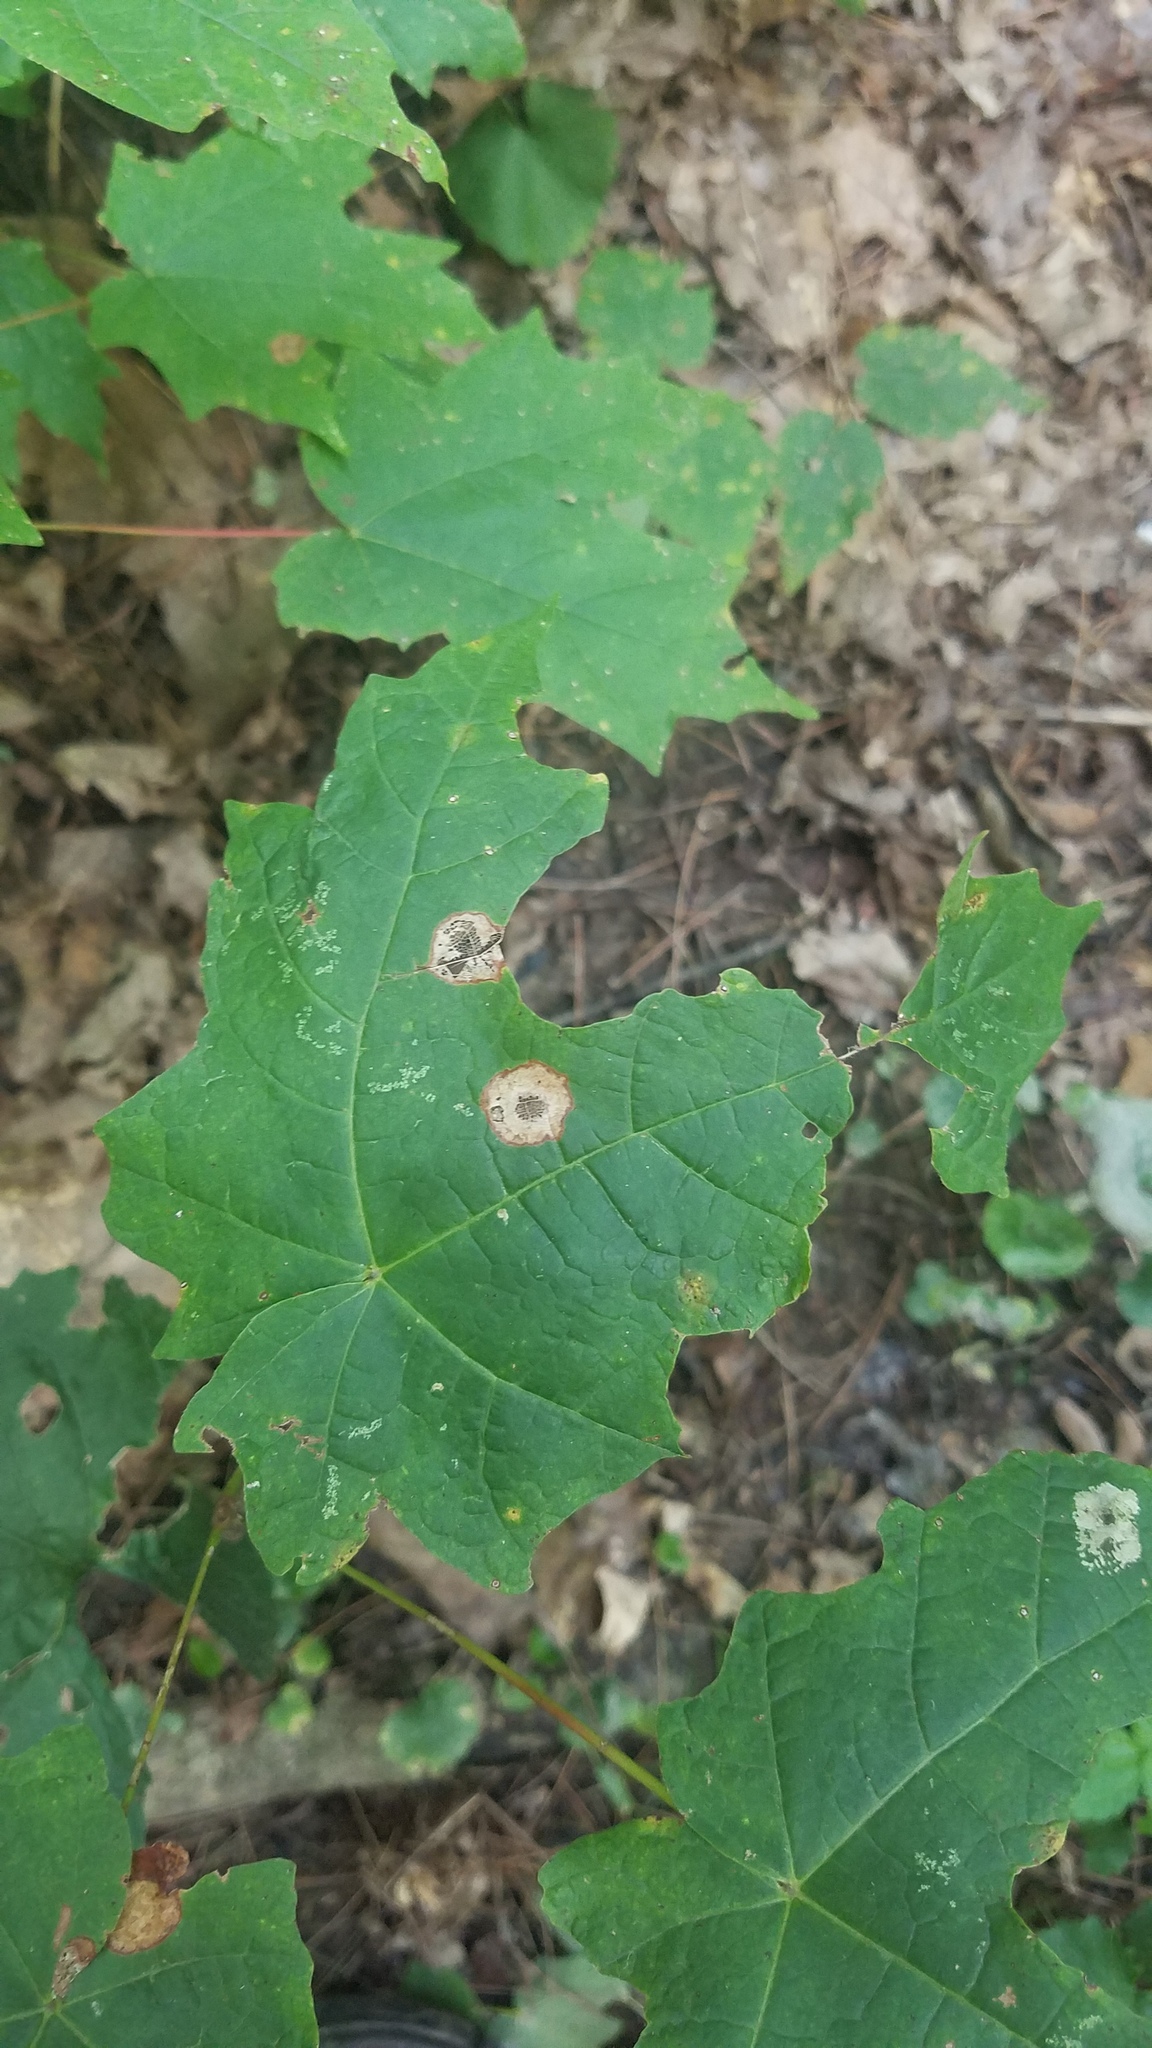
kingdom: Animalia
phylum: Arthropoda
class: Insecta
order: Diptera
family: Cecidomyiidae
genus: Acericecis
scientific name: Acericecis ocellaris
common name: Ocellate gall midge
